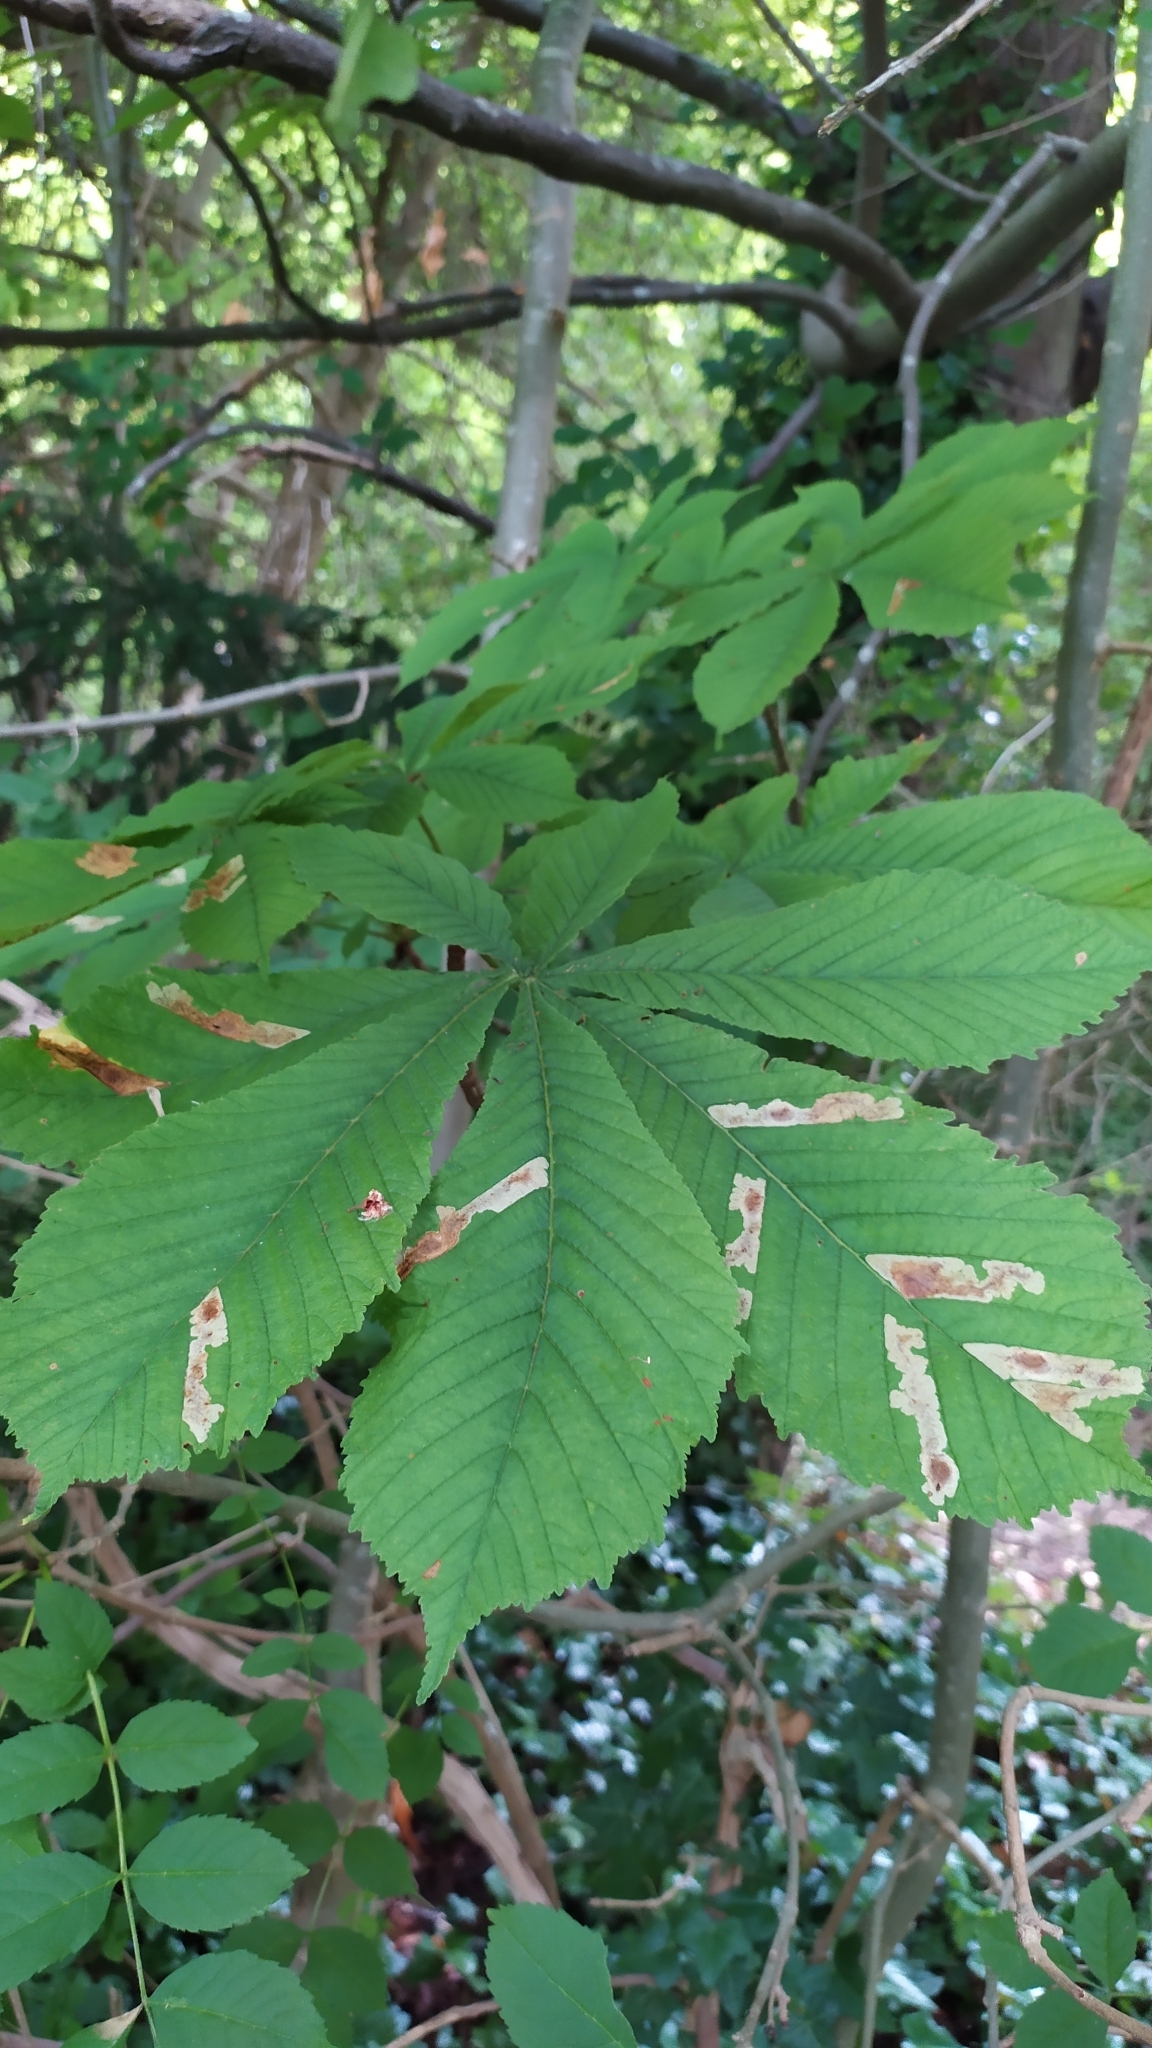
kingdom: Plantae
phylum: Tracheophyta
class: Magnoliopsida
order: Sapindales
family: Sapindaceae
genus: Aesculus
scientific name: Aesculus hippocastanum
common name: Horse-chestnut
